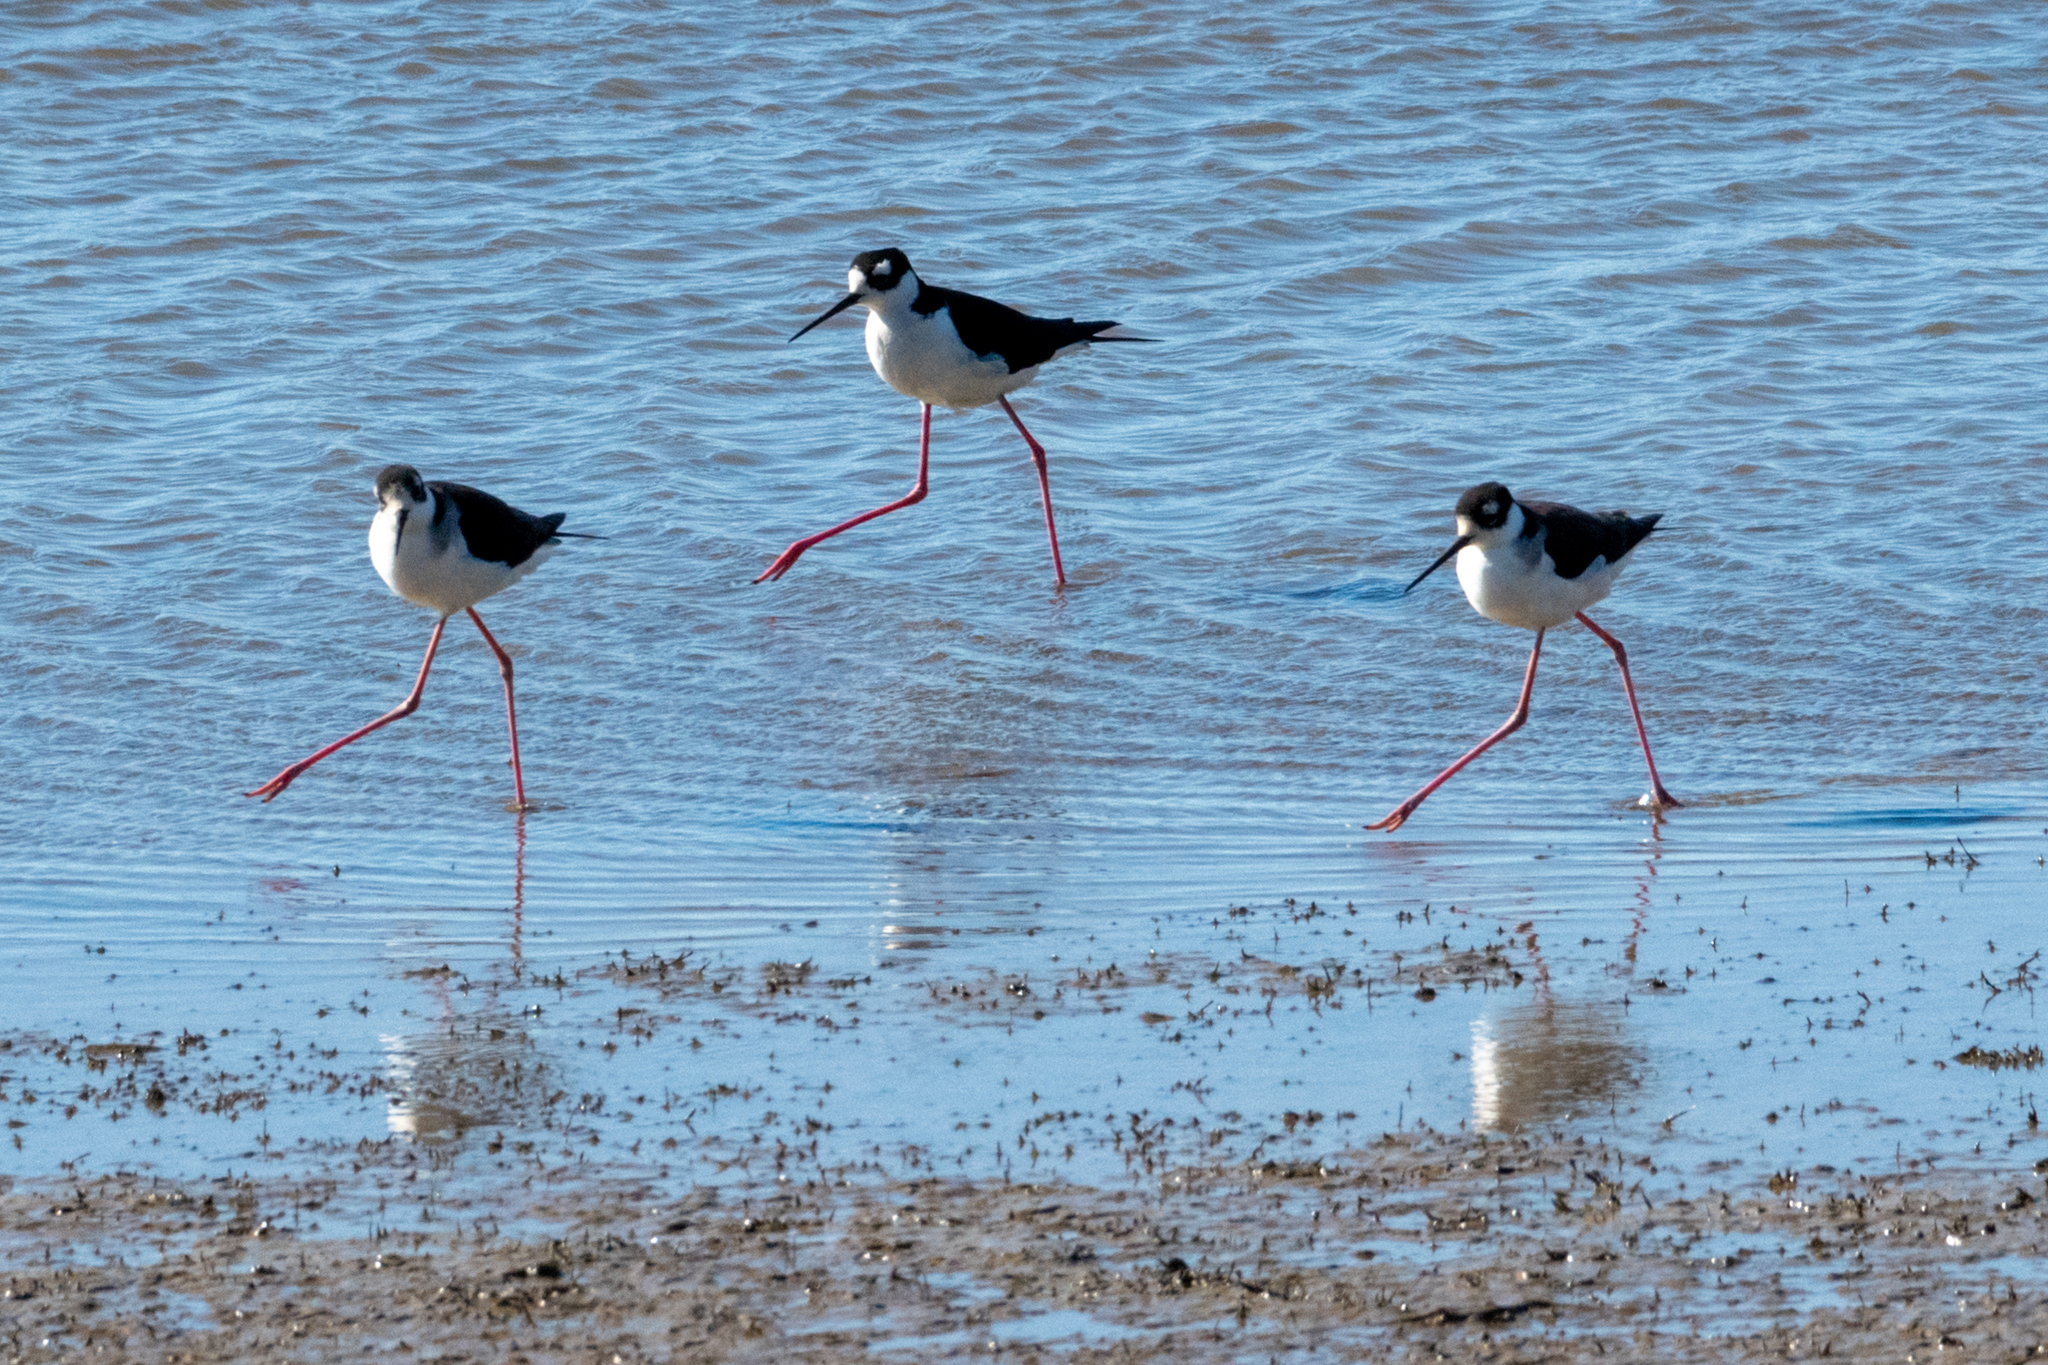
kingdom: Animalia
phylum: Chordata
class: Aves
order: Charadriiformes
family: Recurvirostridae
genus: Himantopus
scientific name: Himantopus mexicanus
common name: Black-necked stilt
